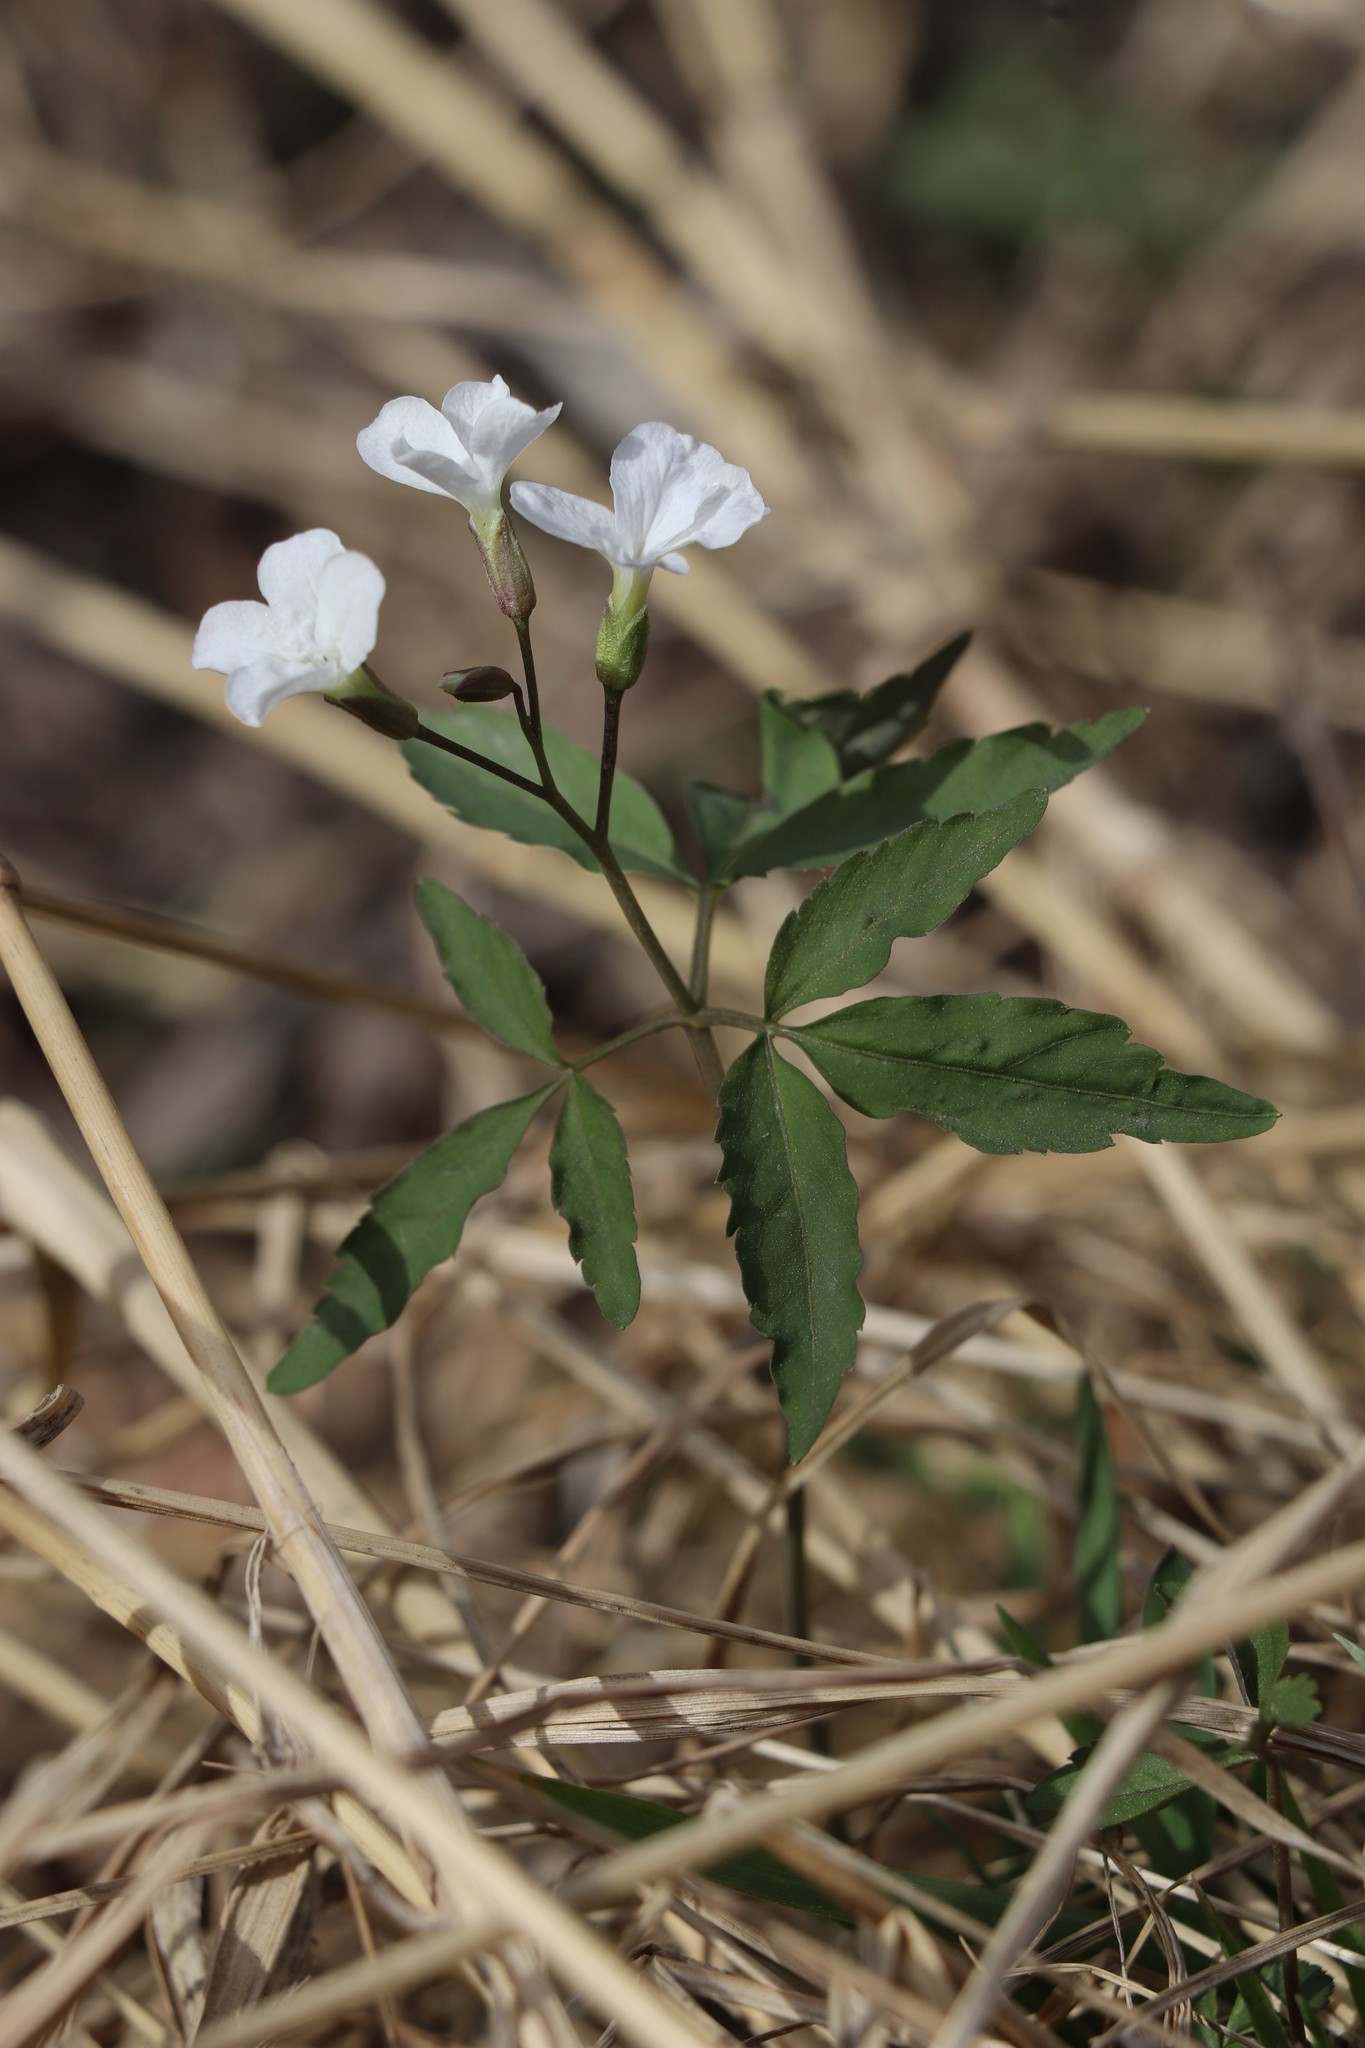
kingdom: Plantae
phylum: Tracheophyta
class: Magnoliopsida
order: Brassicales
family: Brassicaceae
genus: Cardamine
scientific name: Cardamine altaica
